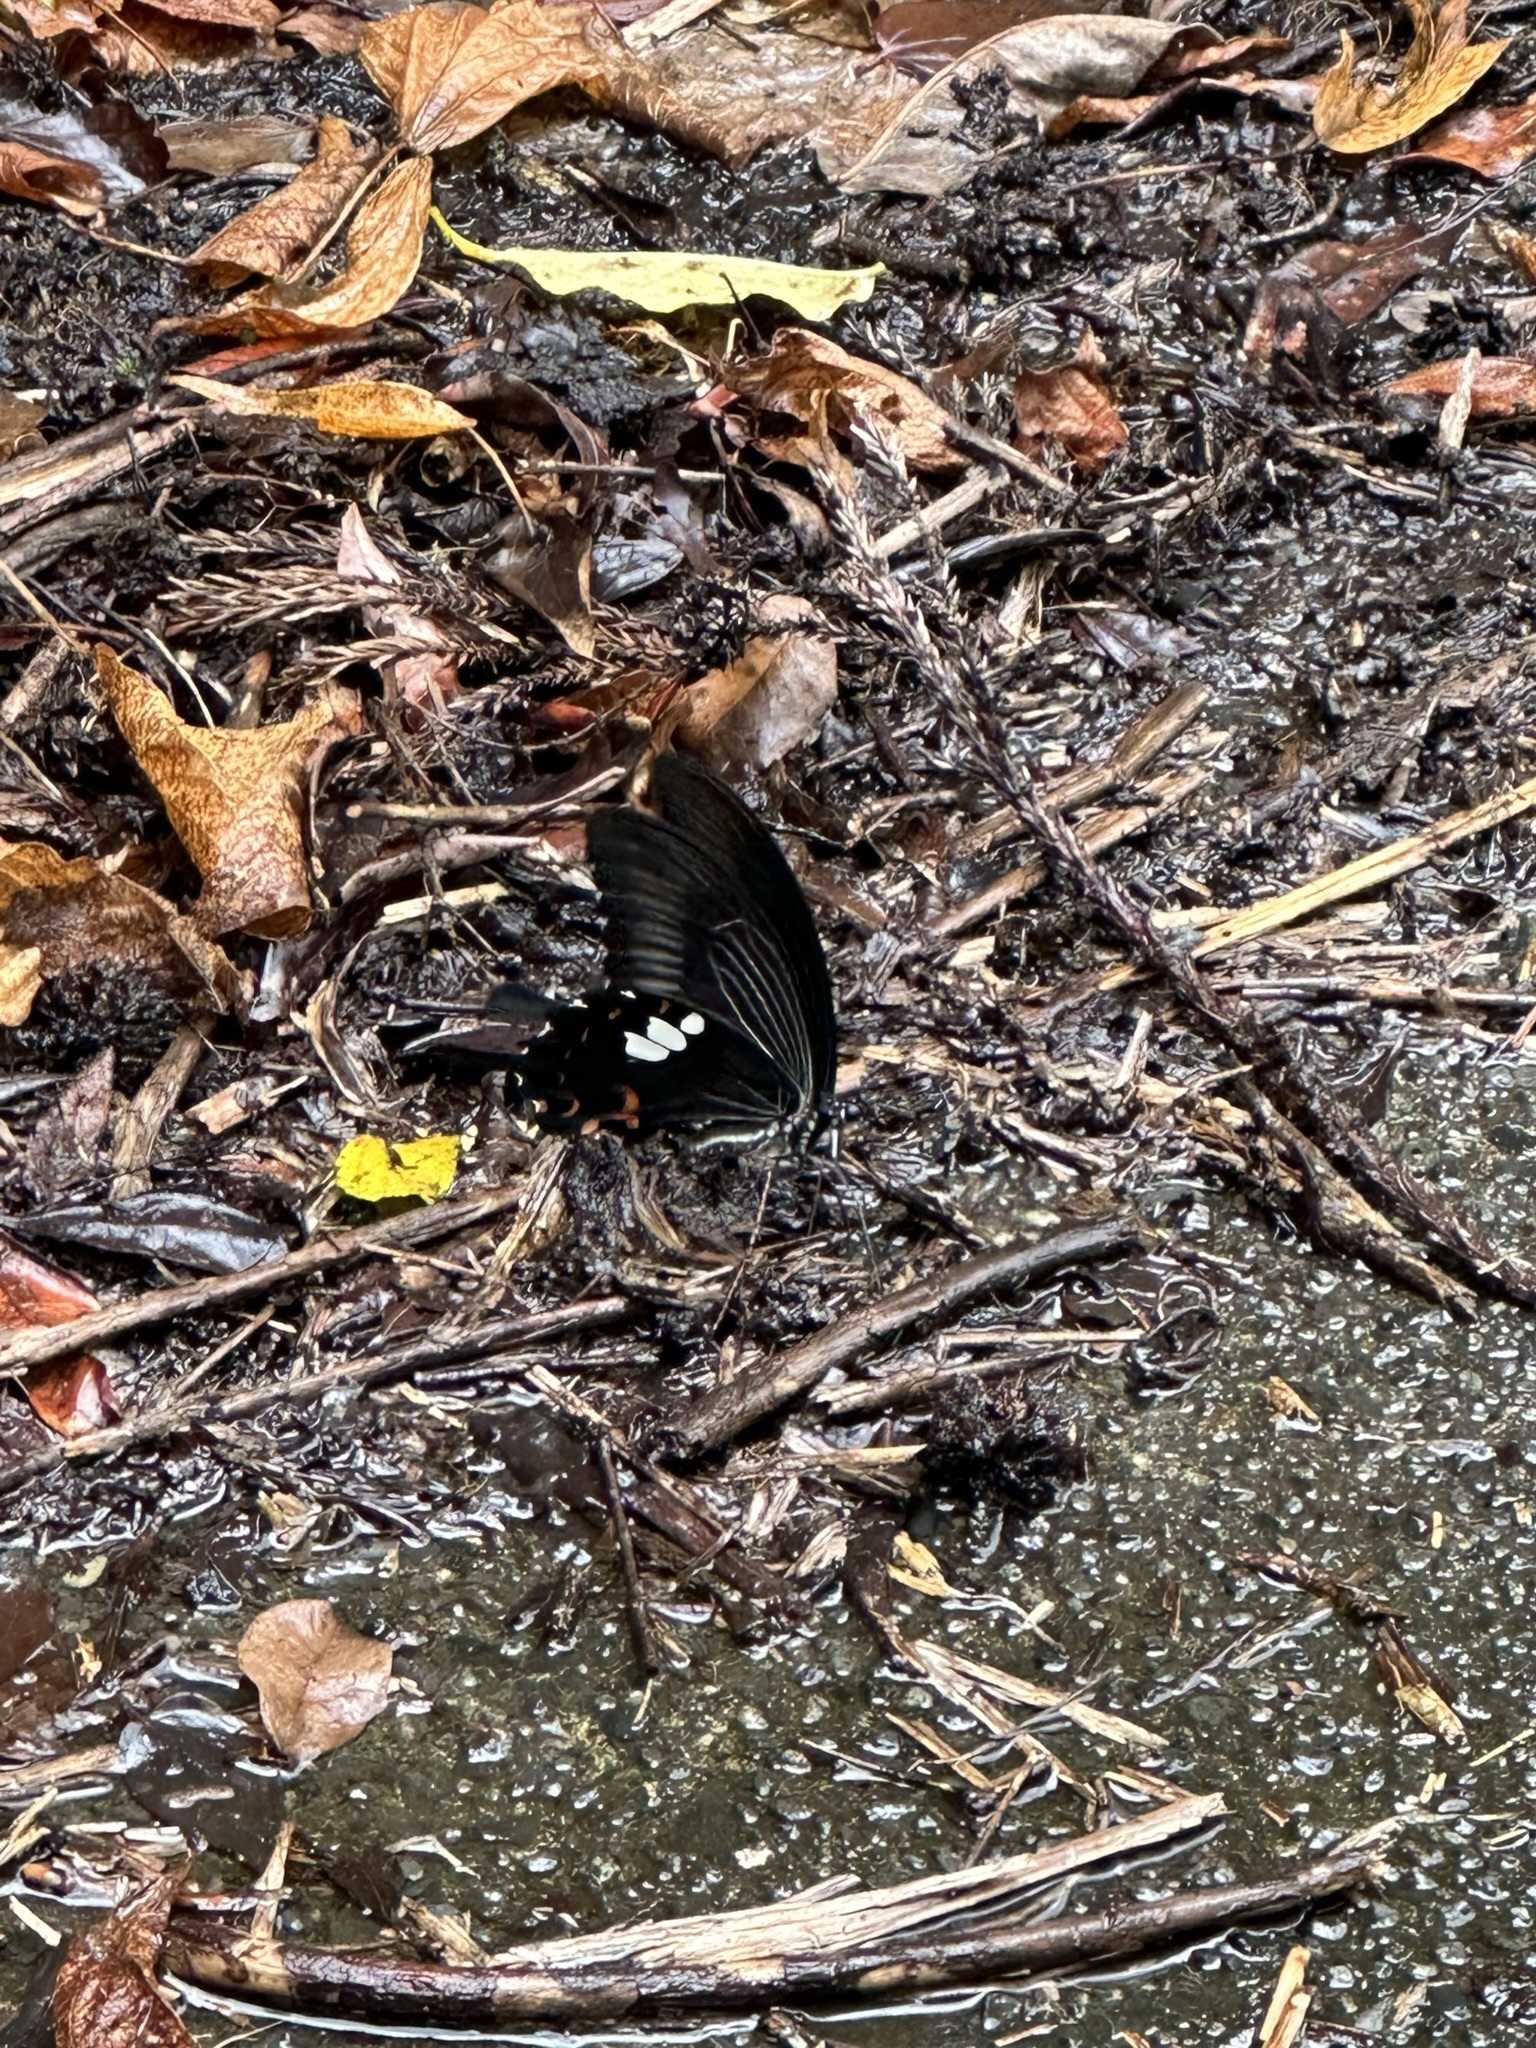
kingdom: Animalia
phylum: Arthropoda
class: Insecta
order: Lepidoptera
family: Papilionidae
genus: Papilio
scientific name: Papilio helenus
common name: Red helen
